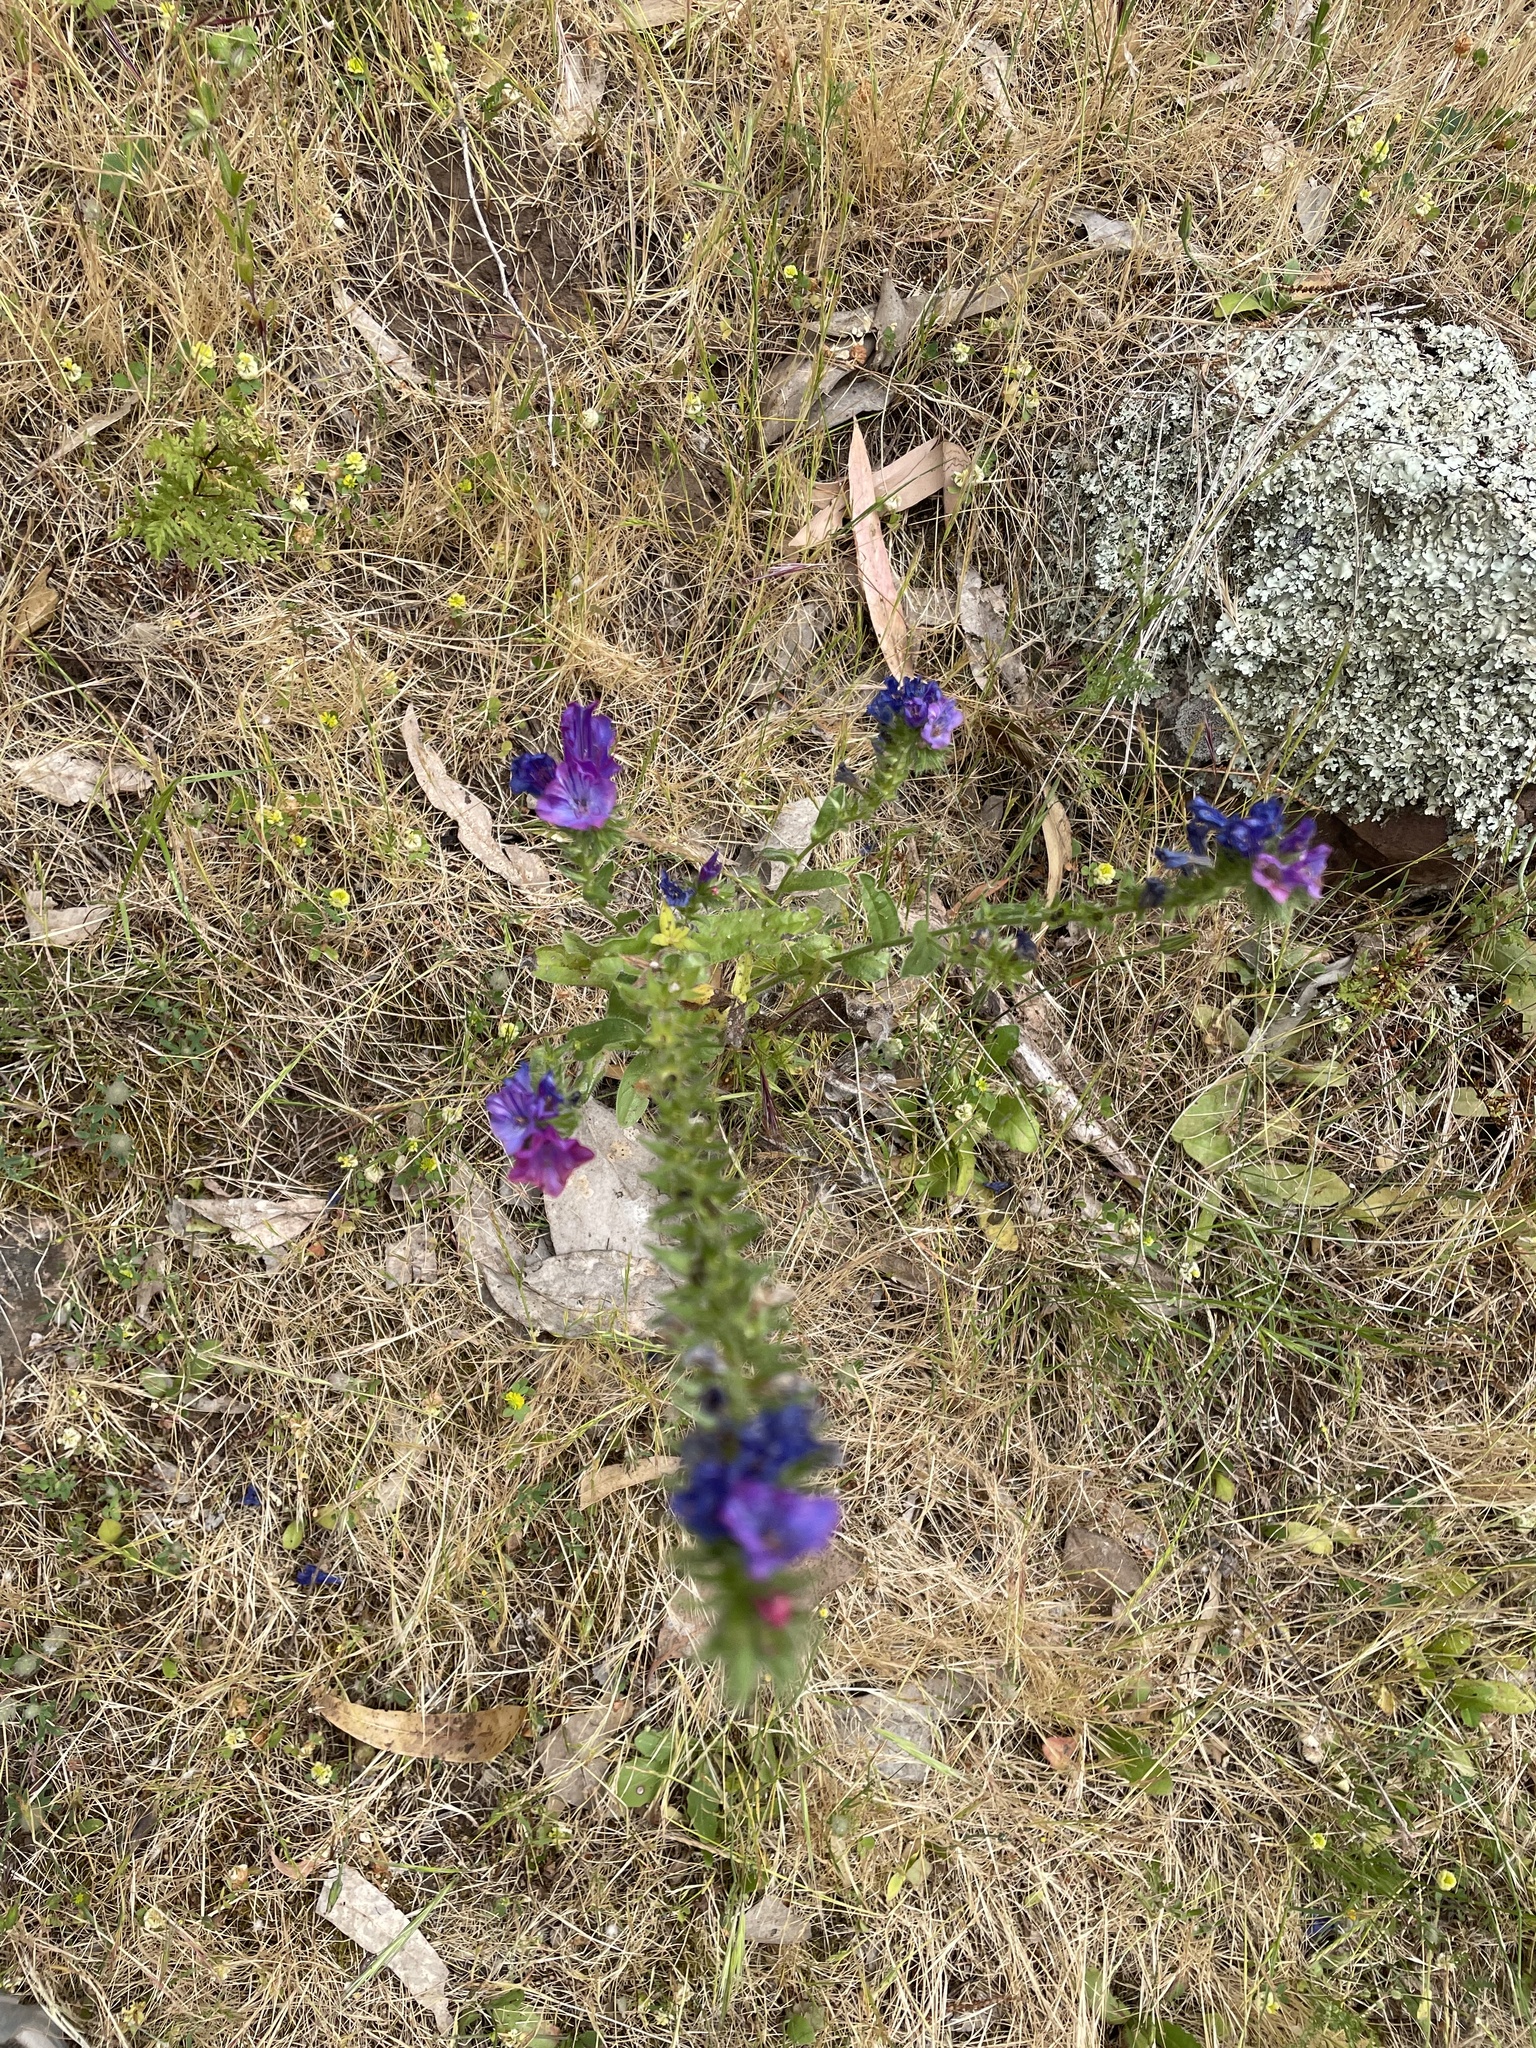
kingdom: Plantae
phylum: Tracheophyta
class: Magnoliopsida
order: Boraginales
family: Boraginaceae
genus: Echium
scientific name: Echium plantagineum
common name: Purple viper's-bugloss
